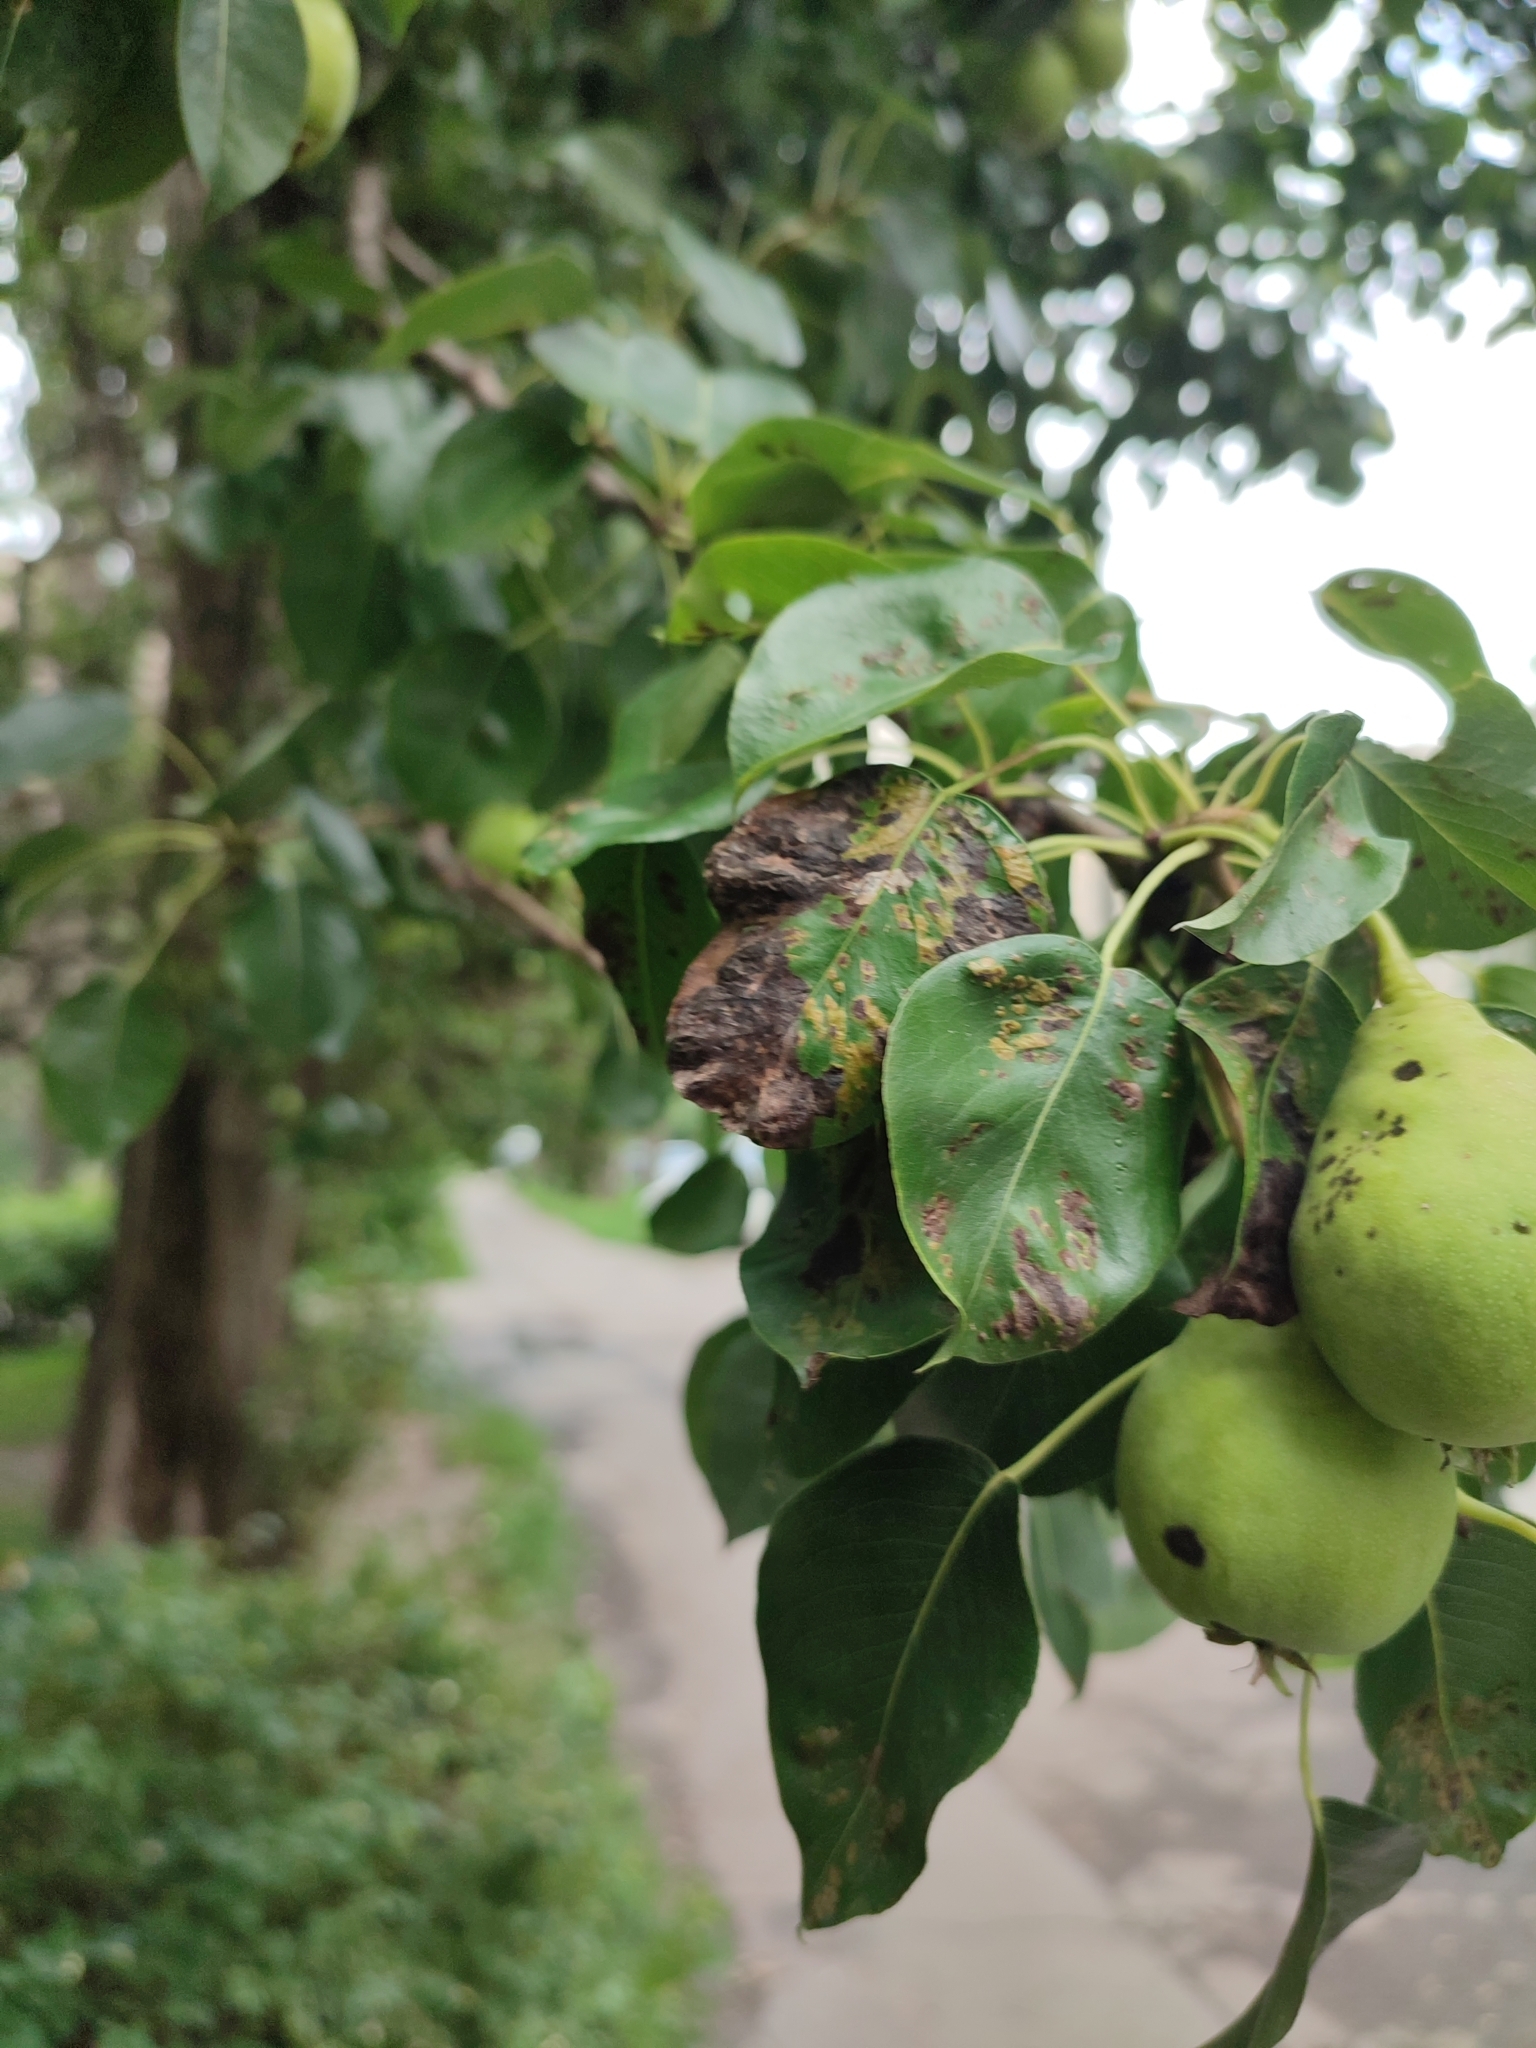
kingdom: Animalia
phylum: Arthropoda
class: Arachnida
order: Trombidiformes
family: Eriophyidae
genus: Eriophyes
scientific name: Eriophyes pyri
